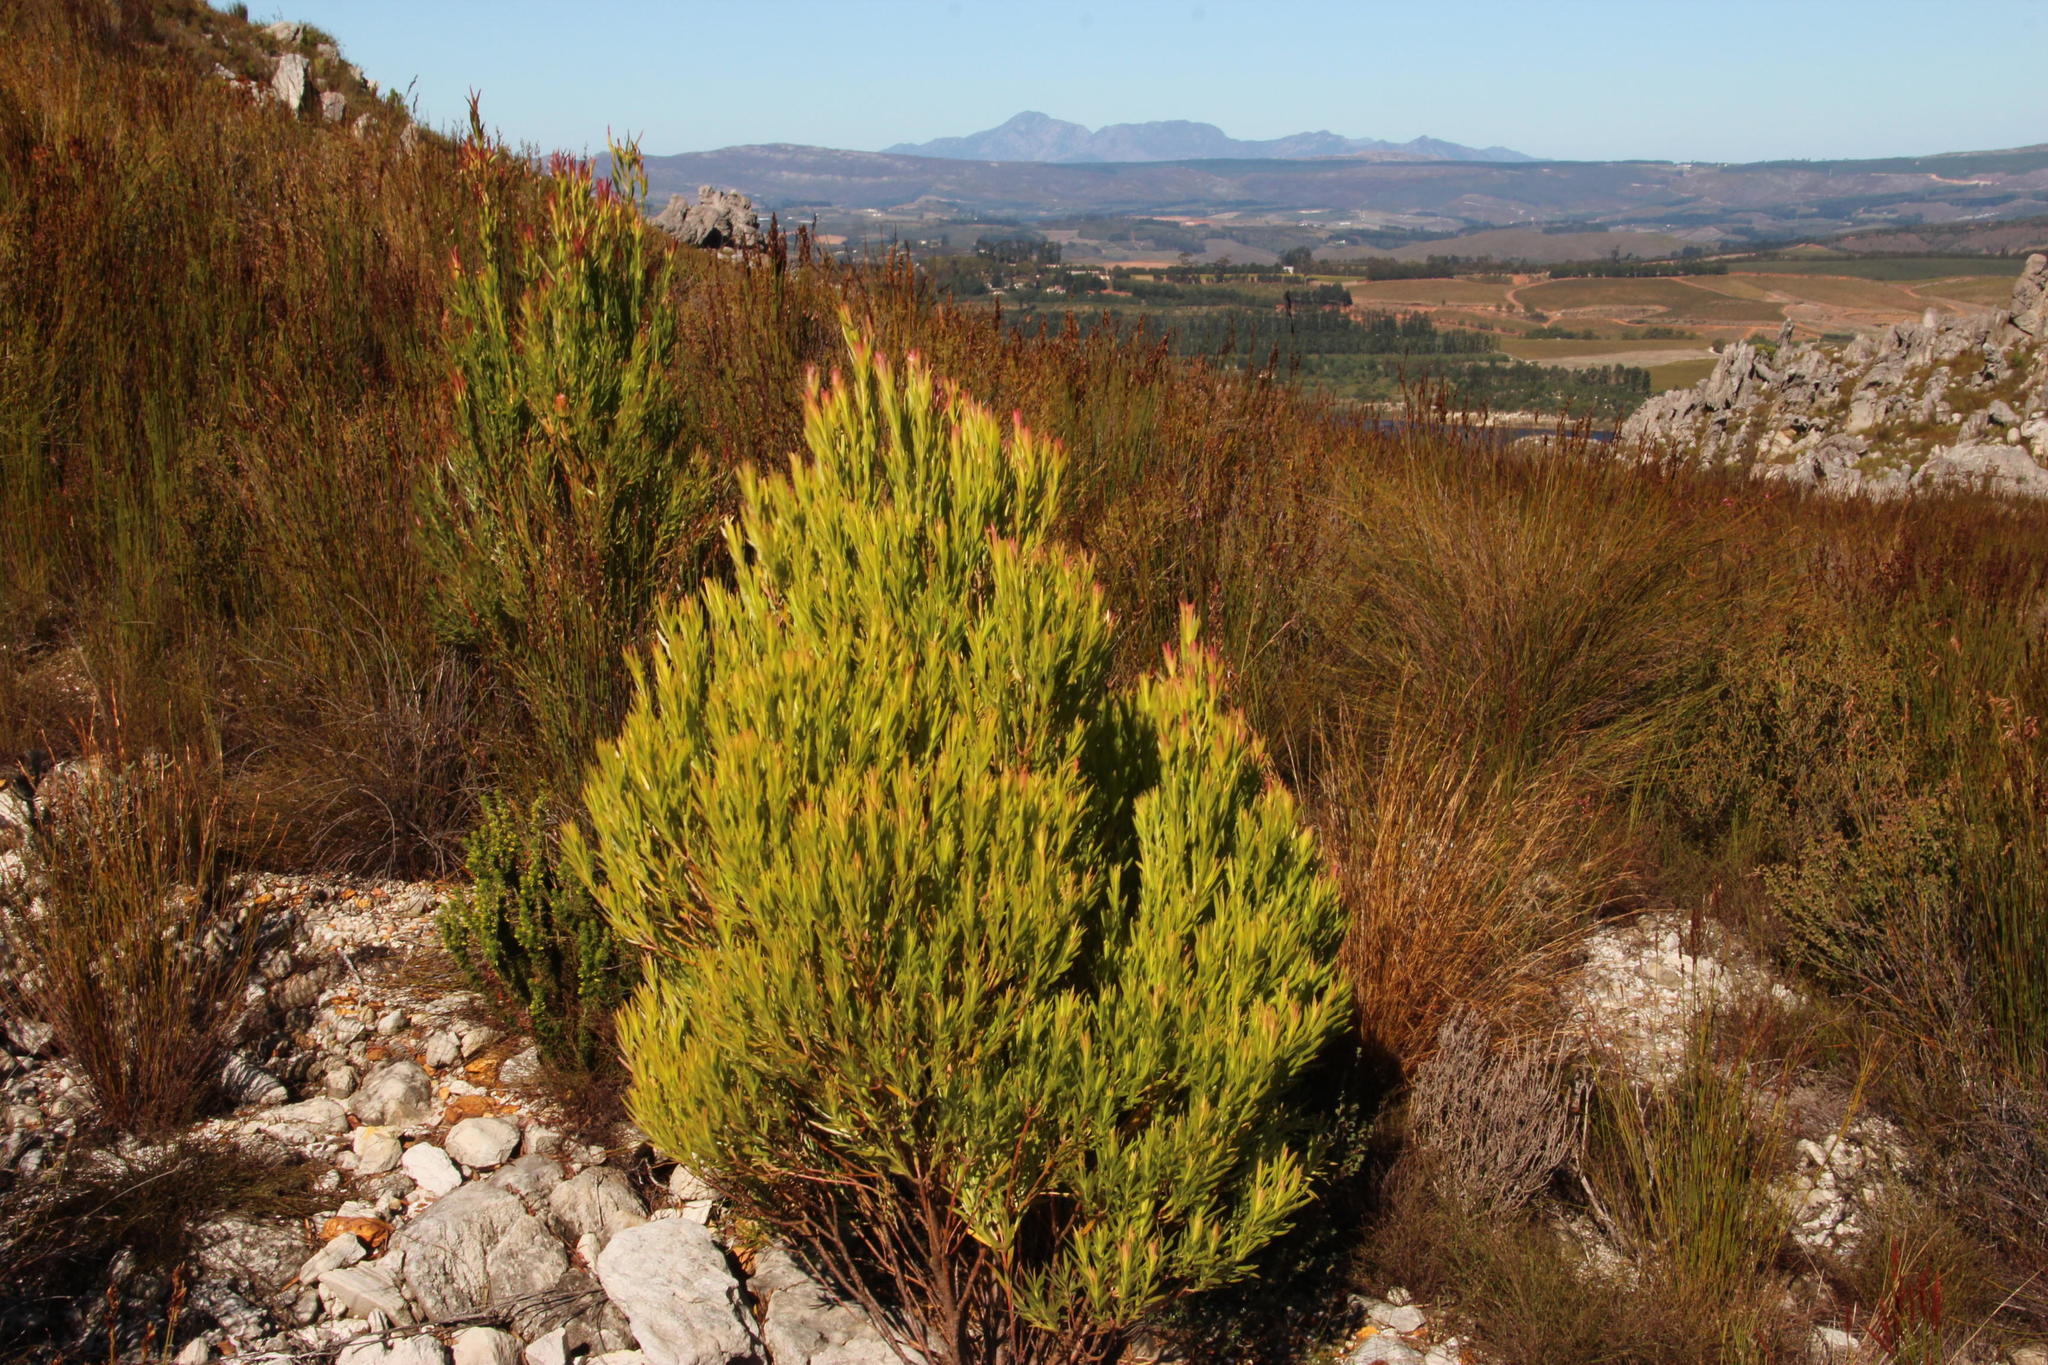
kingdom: Plantae
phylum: Tracheophyta
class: Magnoliopsida
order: Proteales
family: Proteaceae
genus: Leucadendron
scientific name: Leucadendron xanthoconus
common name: Sickle-leaf conebush
